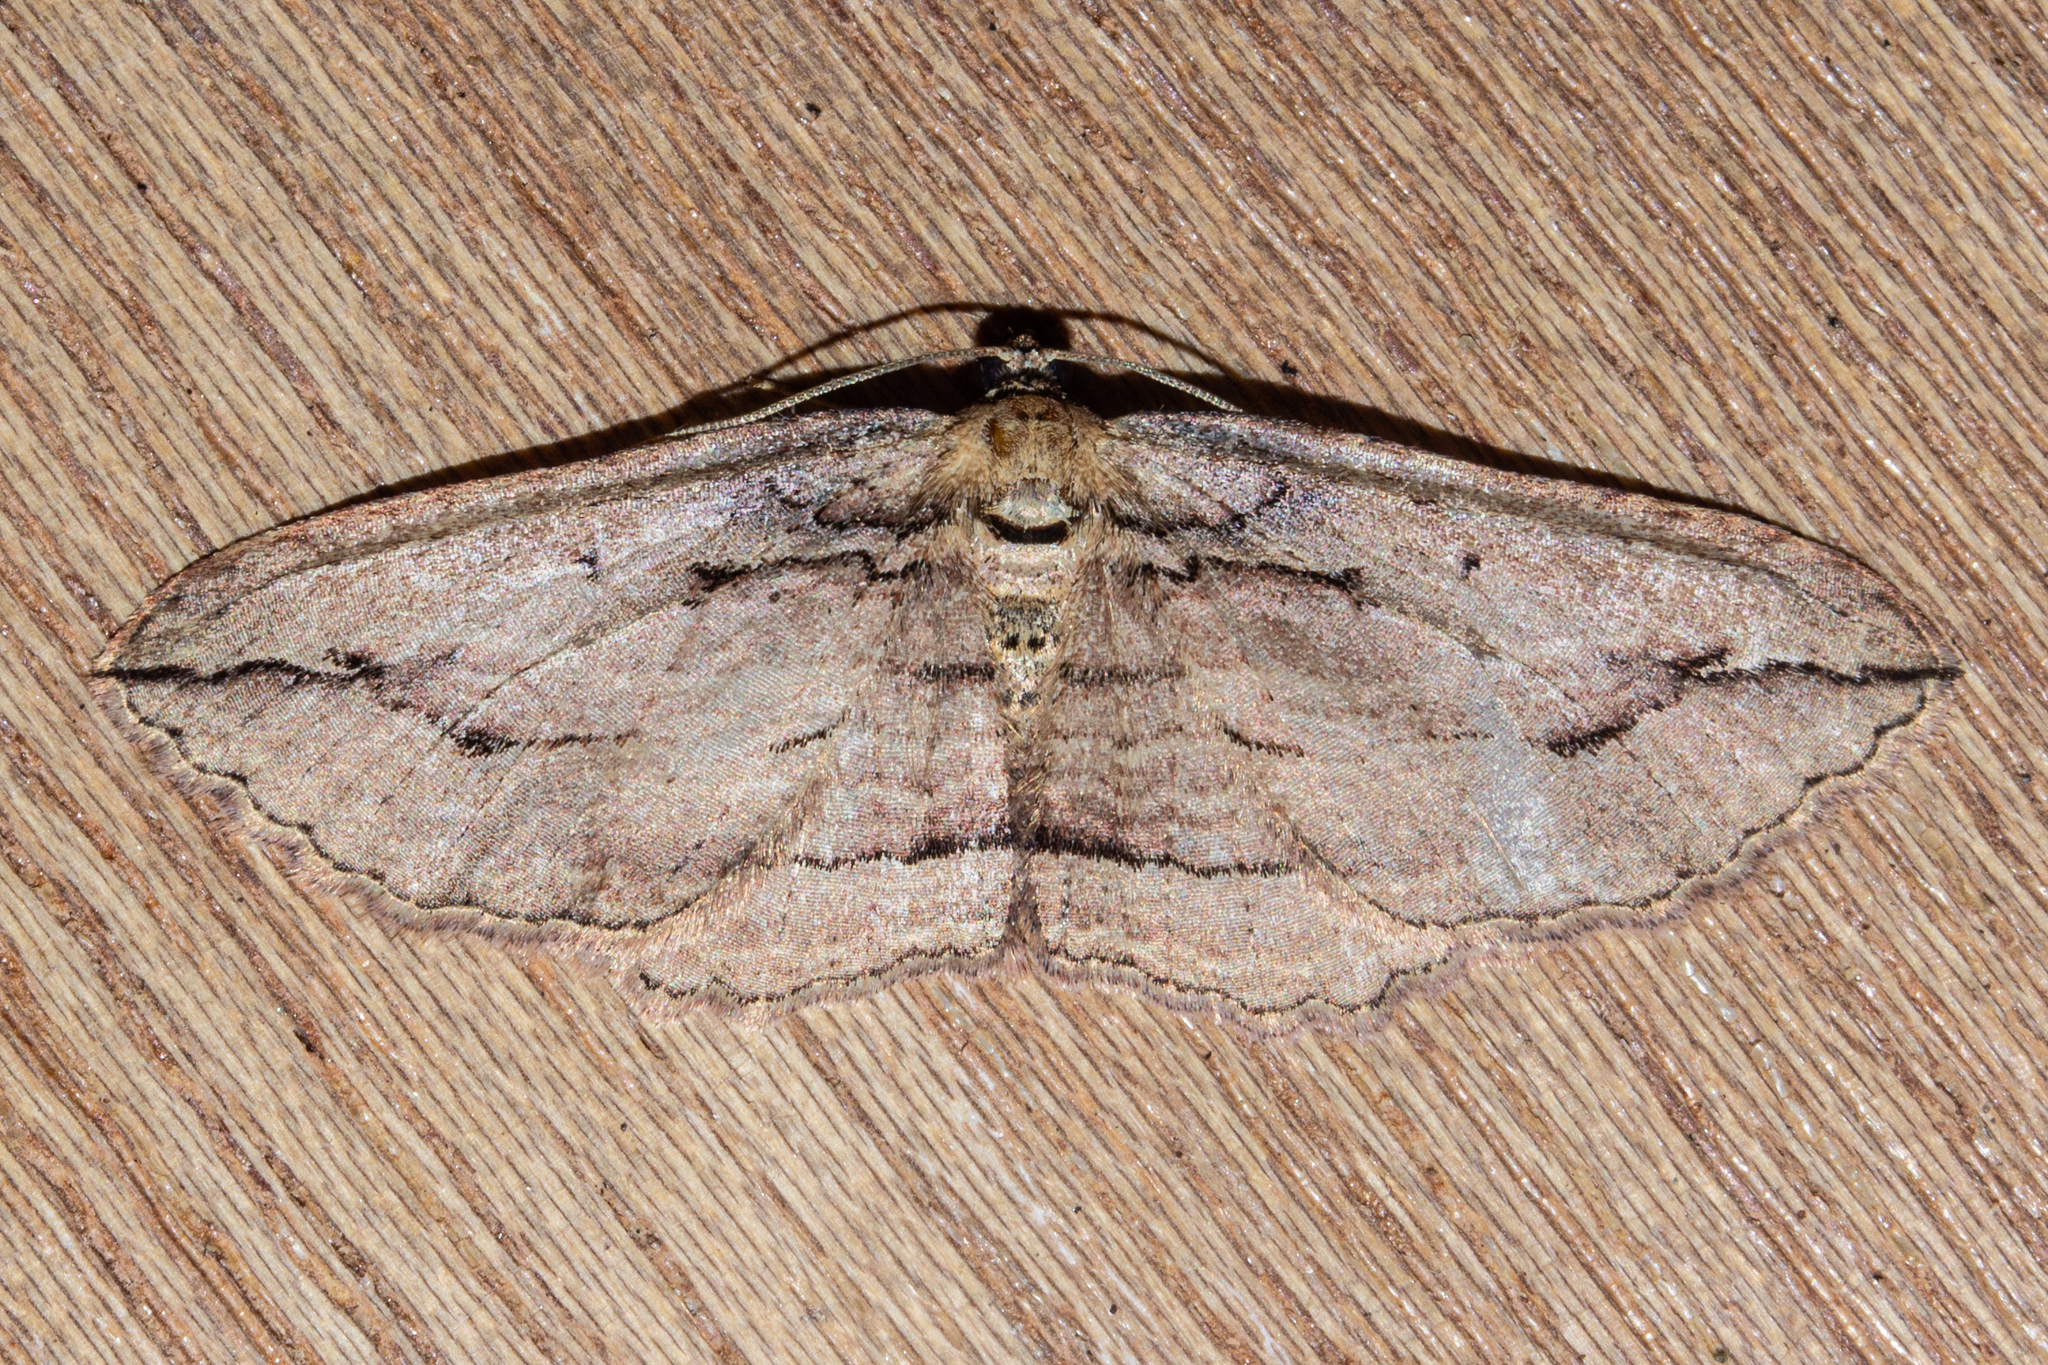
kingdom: Animalia
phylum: Arthropoda
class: Insecta
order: Lepidoptera
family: Geometridae
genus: Austrocidaria
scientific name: Austrocidaria gobiata
